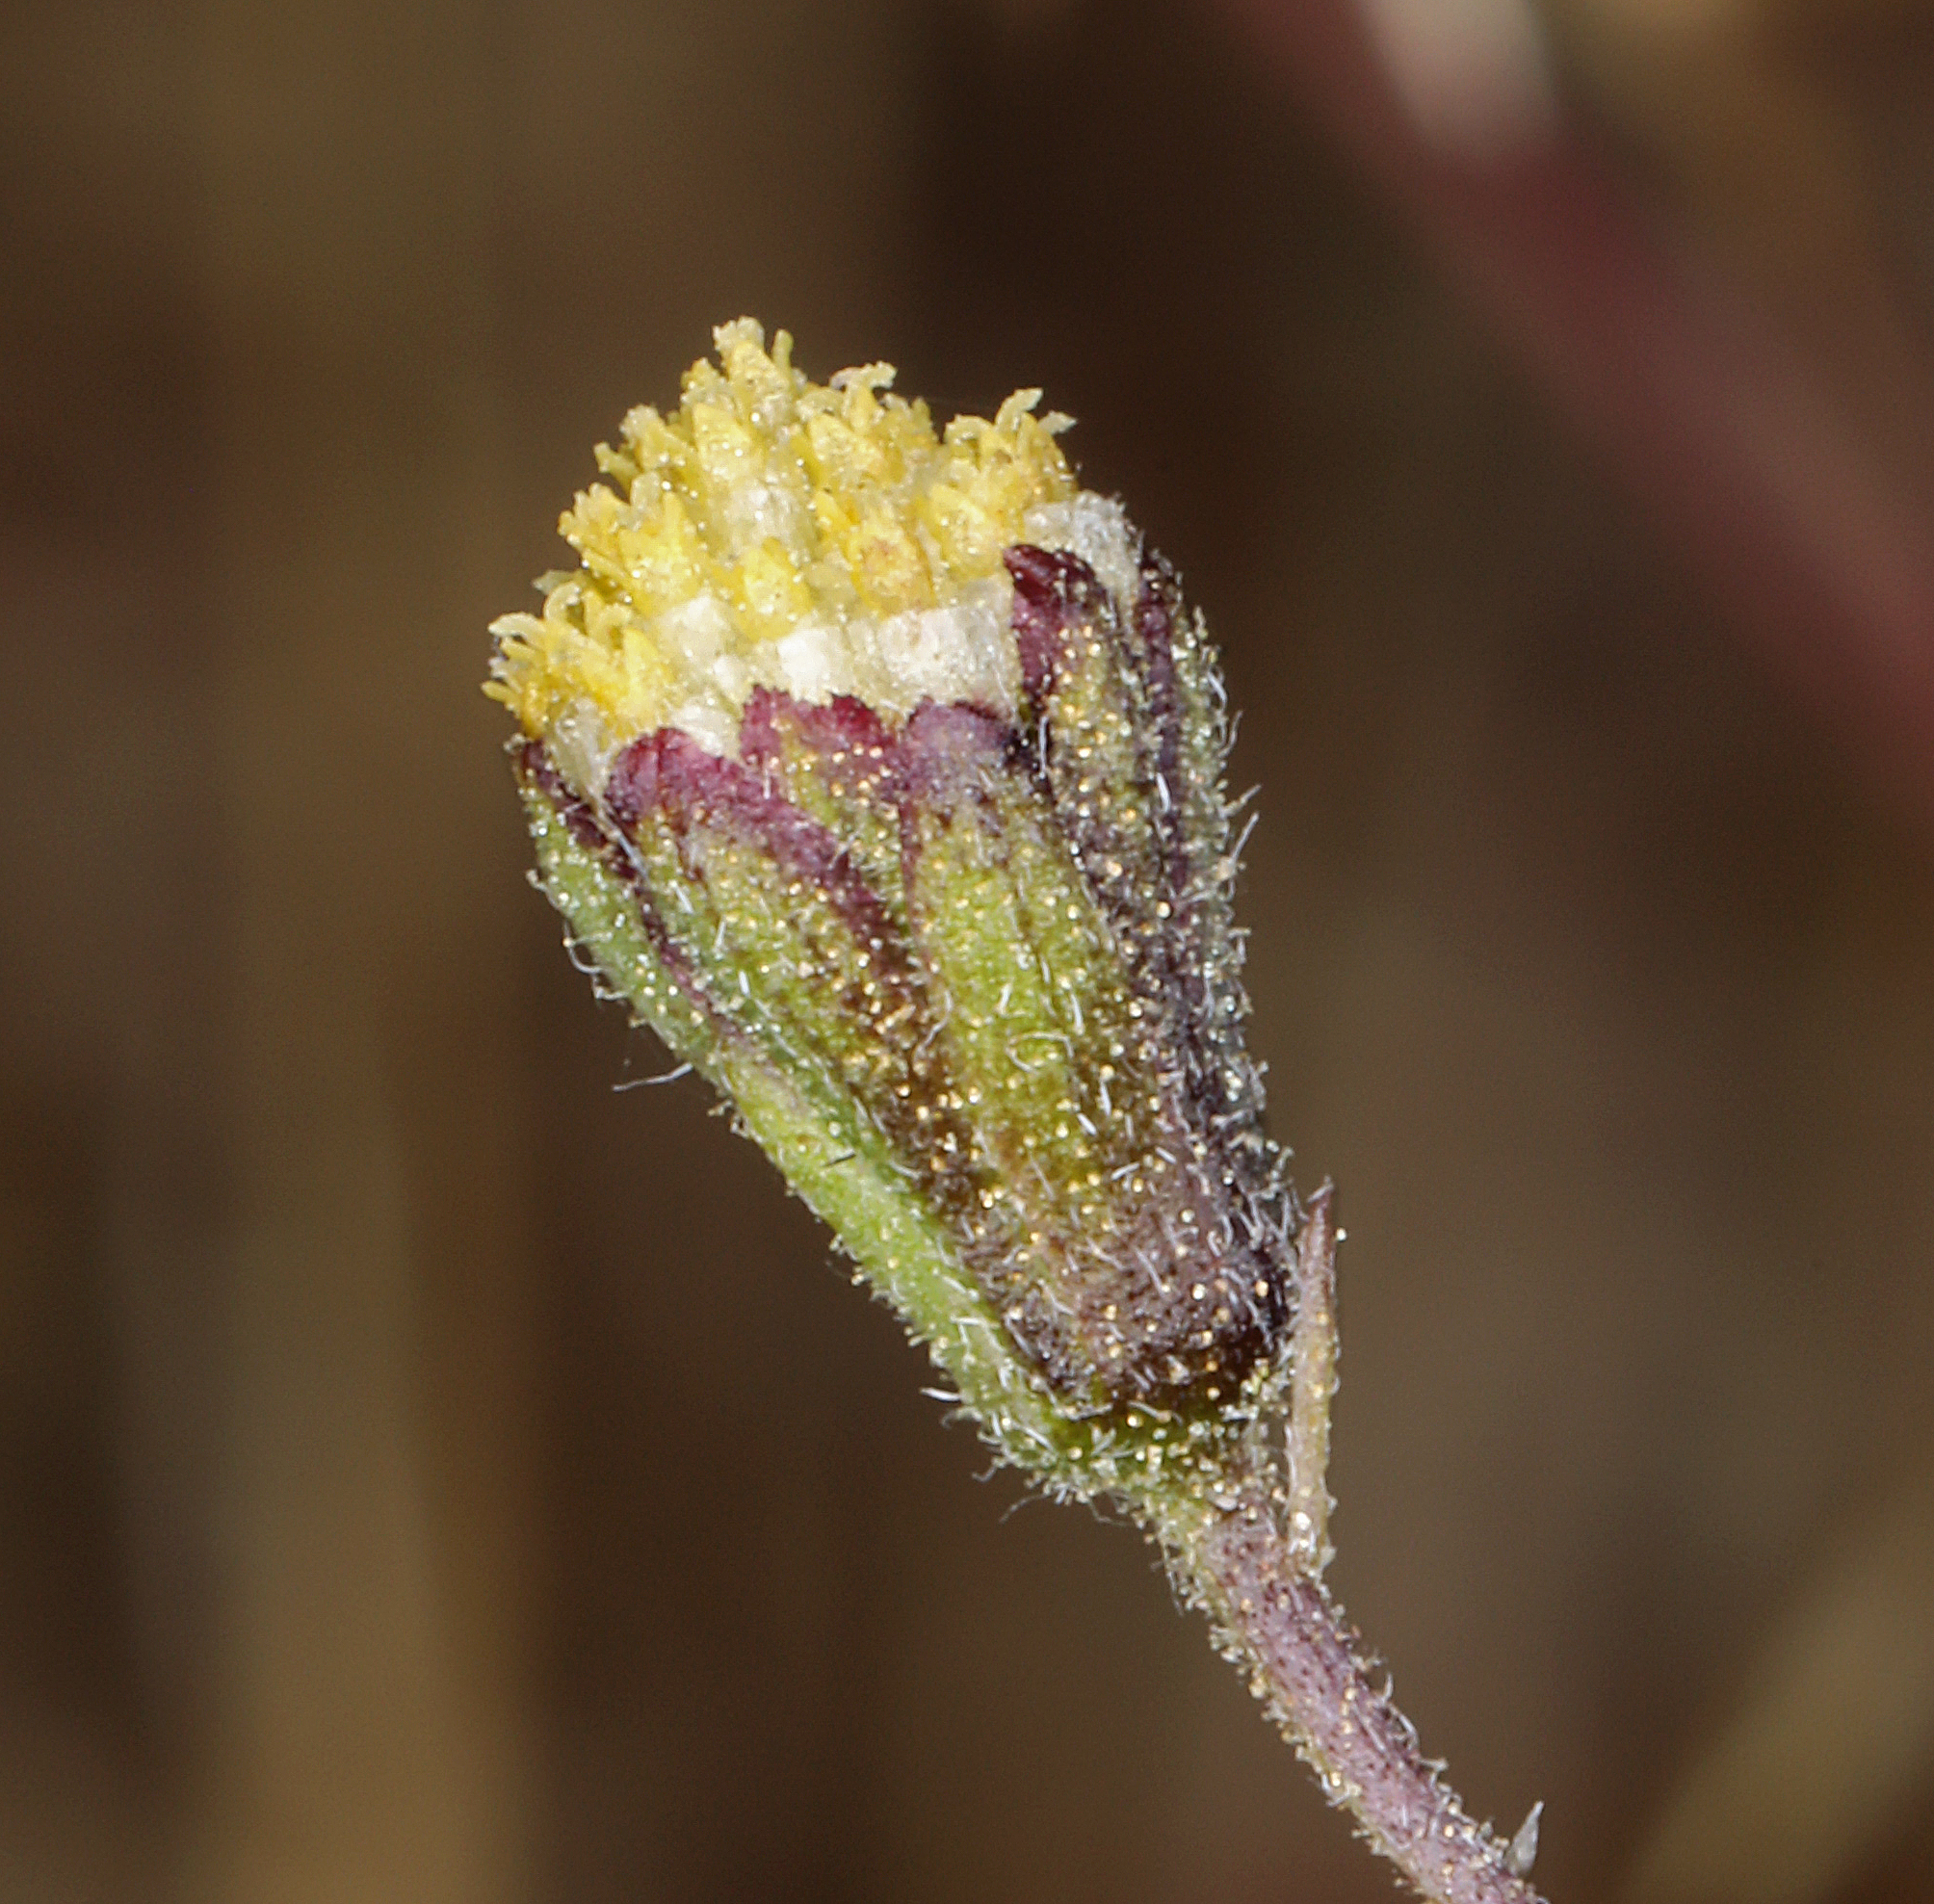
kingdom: Plantae
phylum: Tracheophyta
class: Magnoliopsida
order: Asterales
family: Asteraceae
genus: Picradeniopsis
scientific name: Picradeniopsis multiflora
